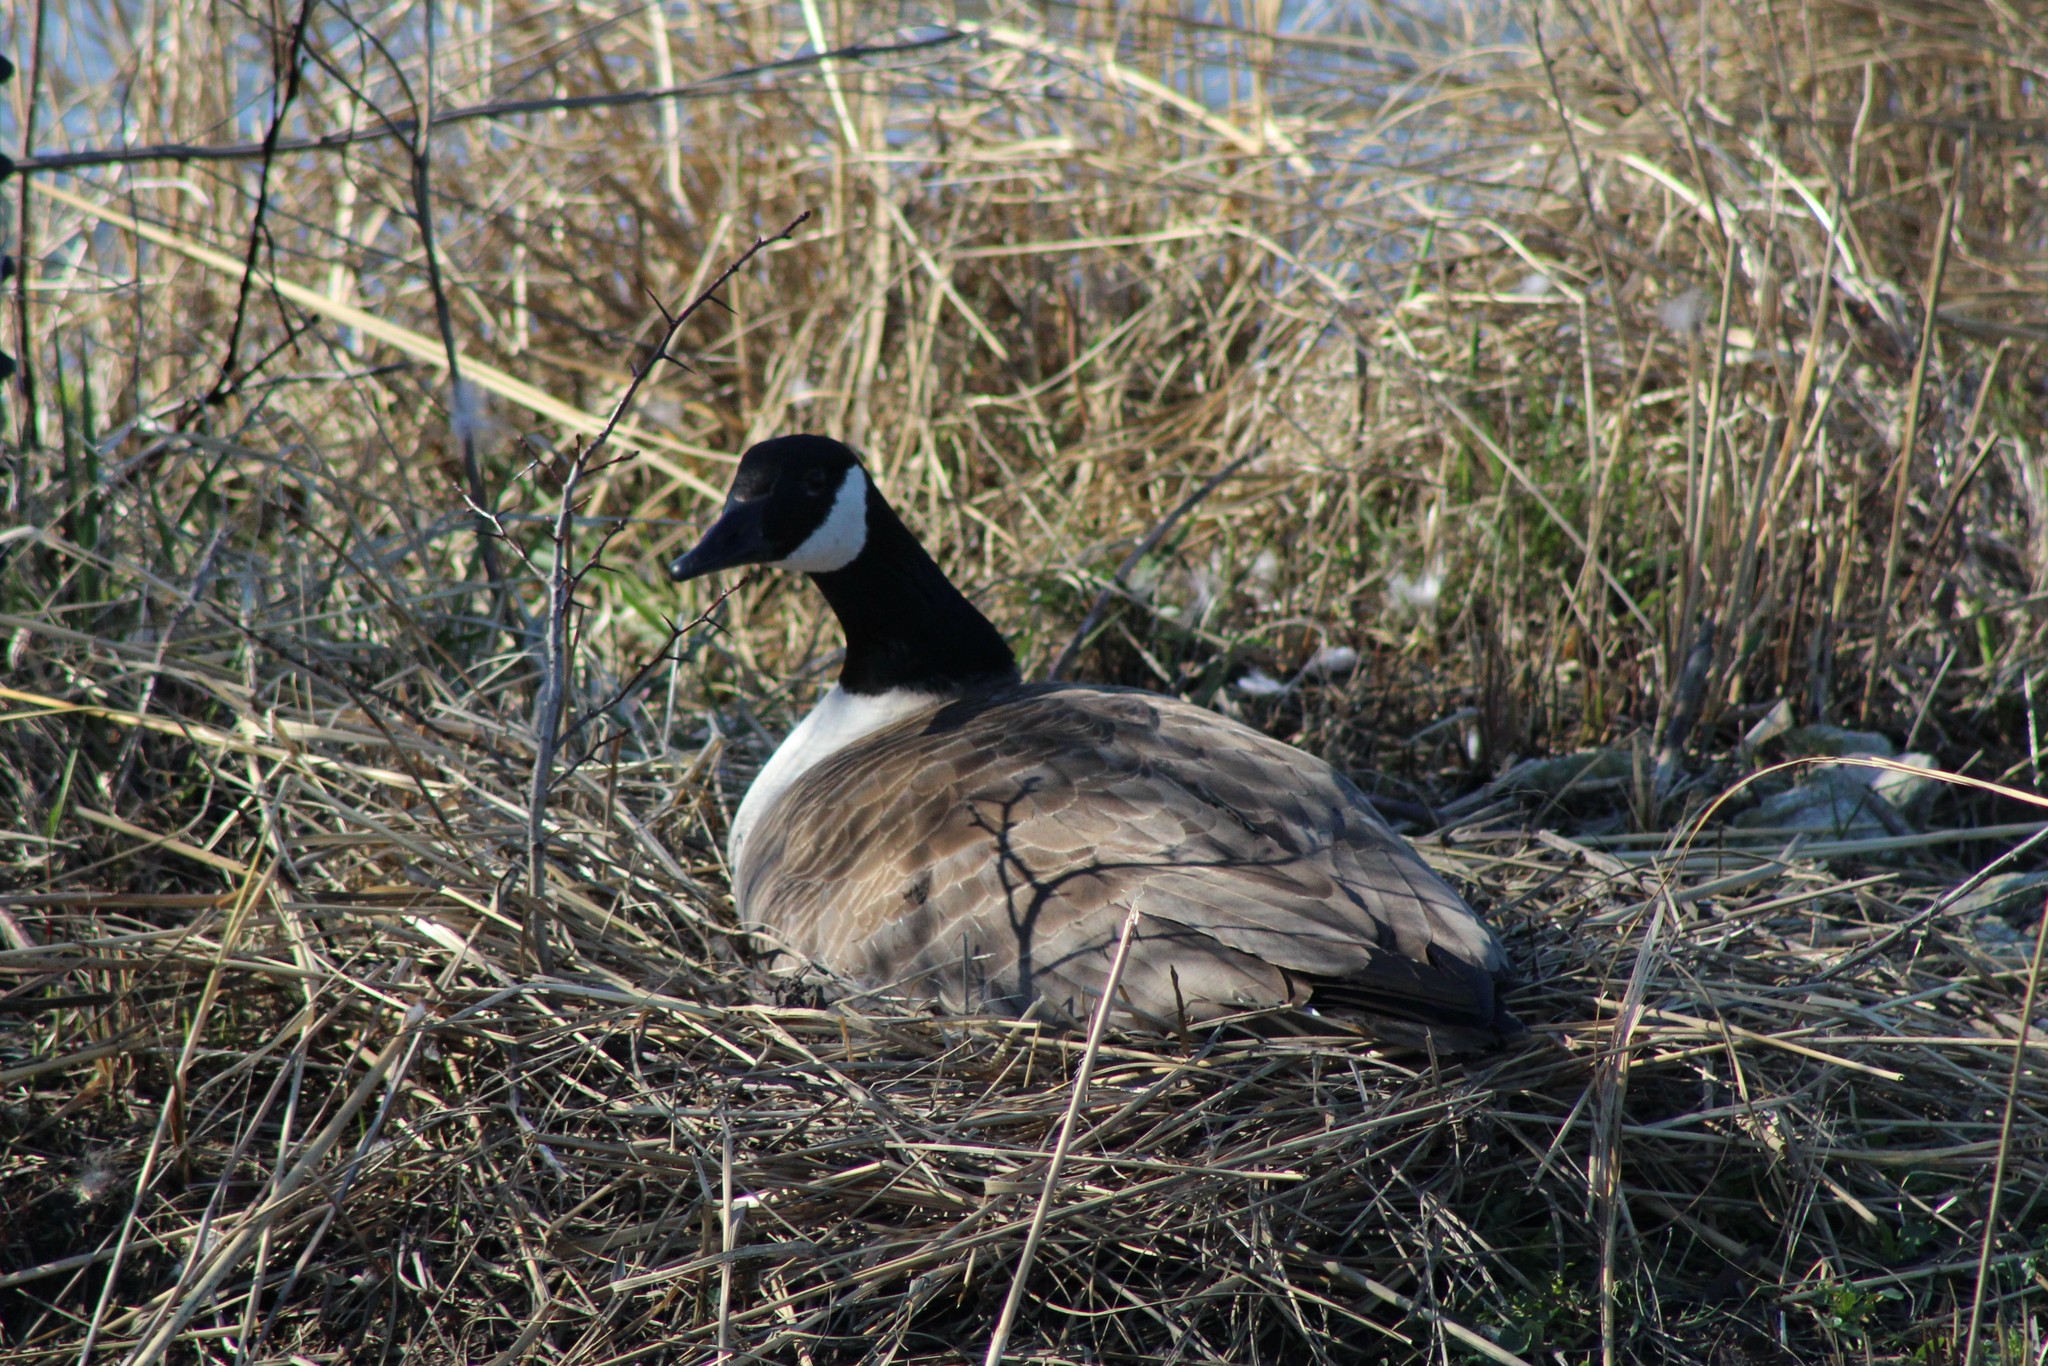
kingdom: Animalia
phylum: Chordata
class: Aves
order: Anseriformes
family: Anatidae
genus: Branta
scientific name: Branta canadensis
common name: Canada goose
